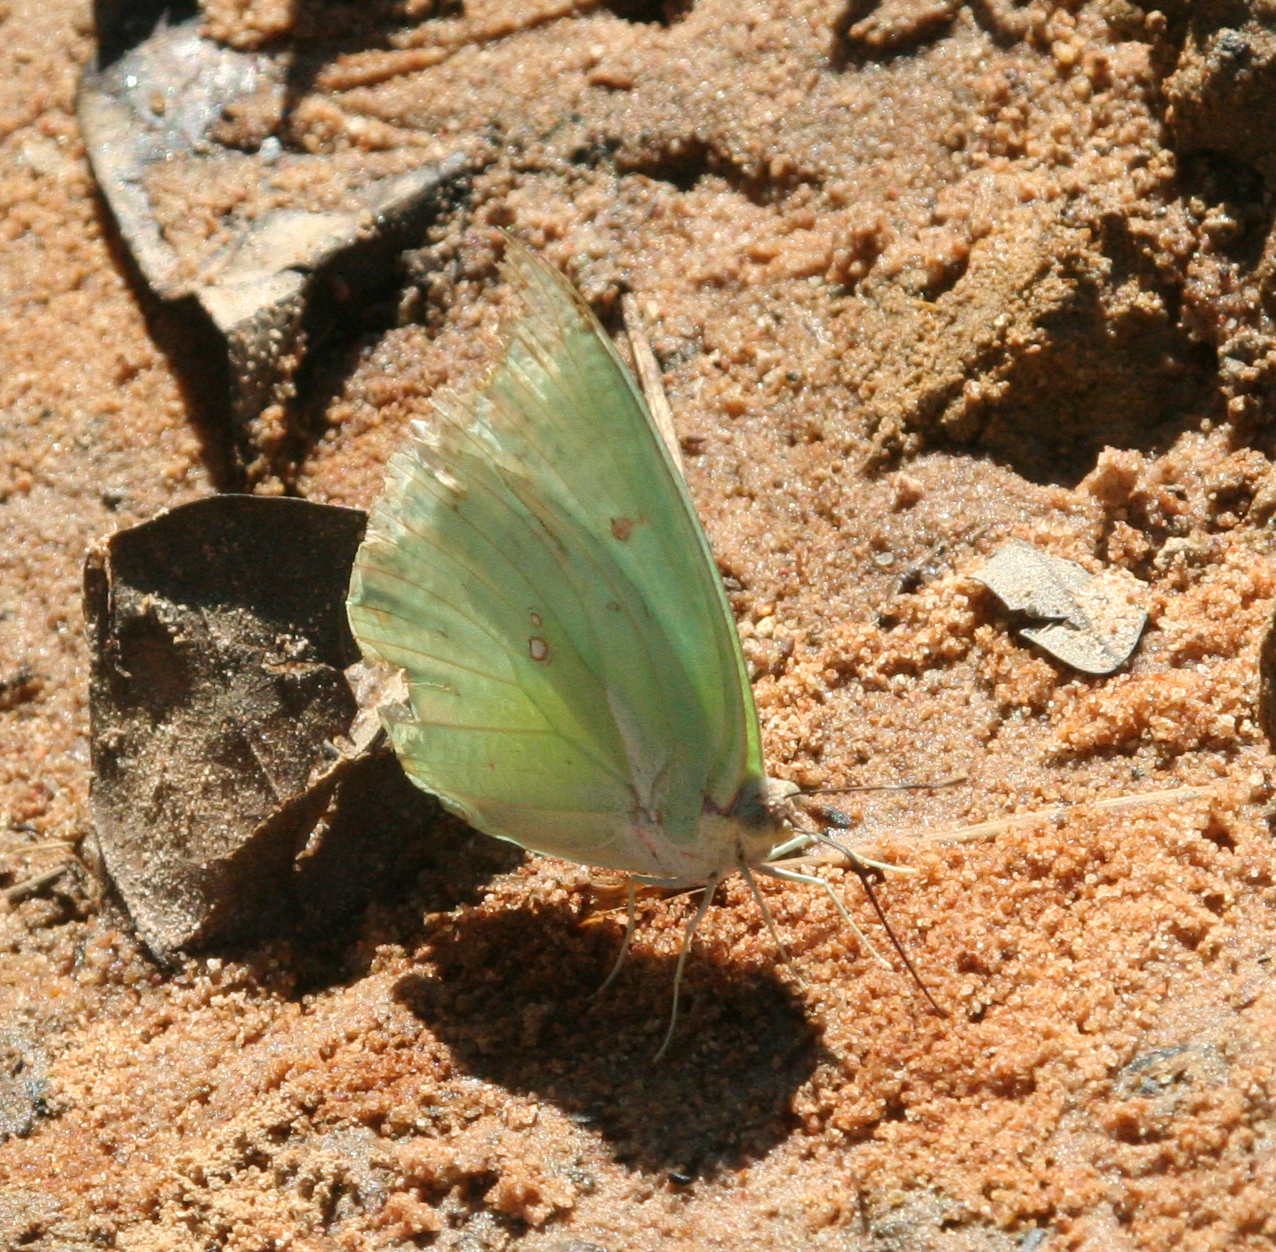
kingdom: Animalia
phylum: Arthropoda
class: Insecta
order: Lepidoptera
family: Pieridae
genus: Catopsilia
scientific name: Catopsilia pomona
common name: Common emigrant
